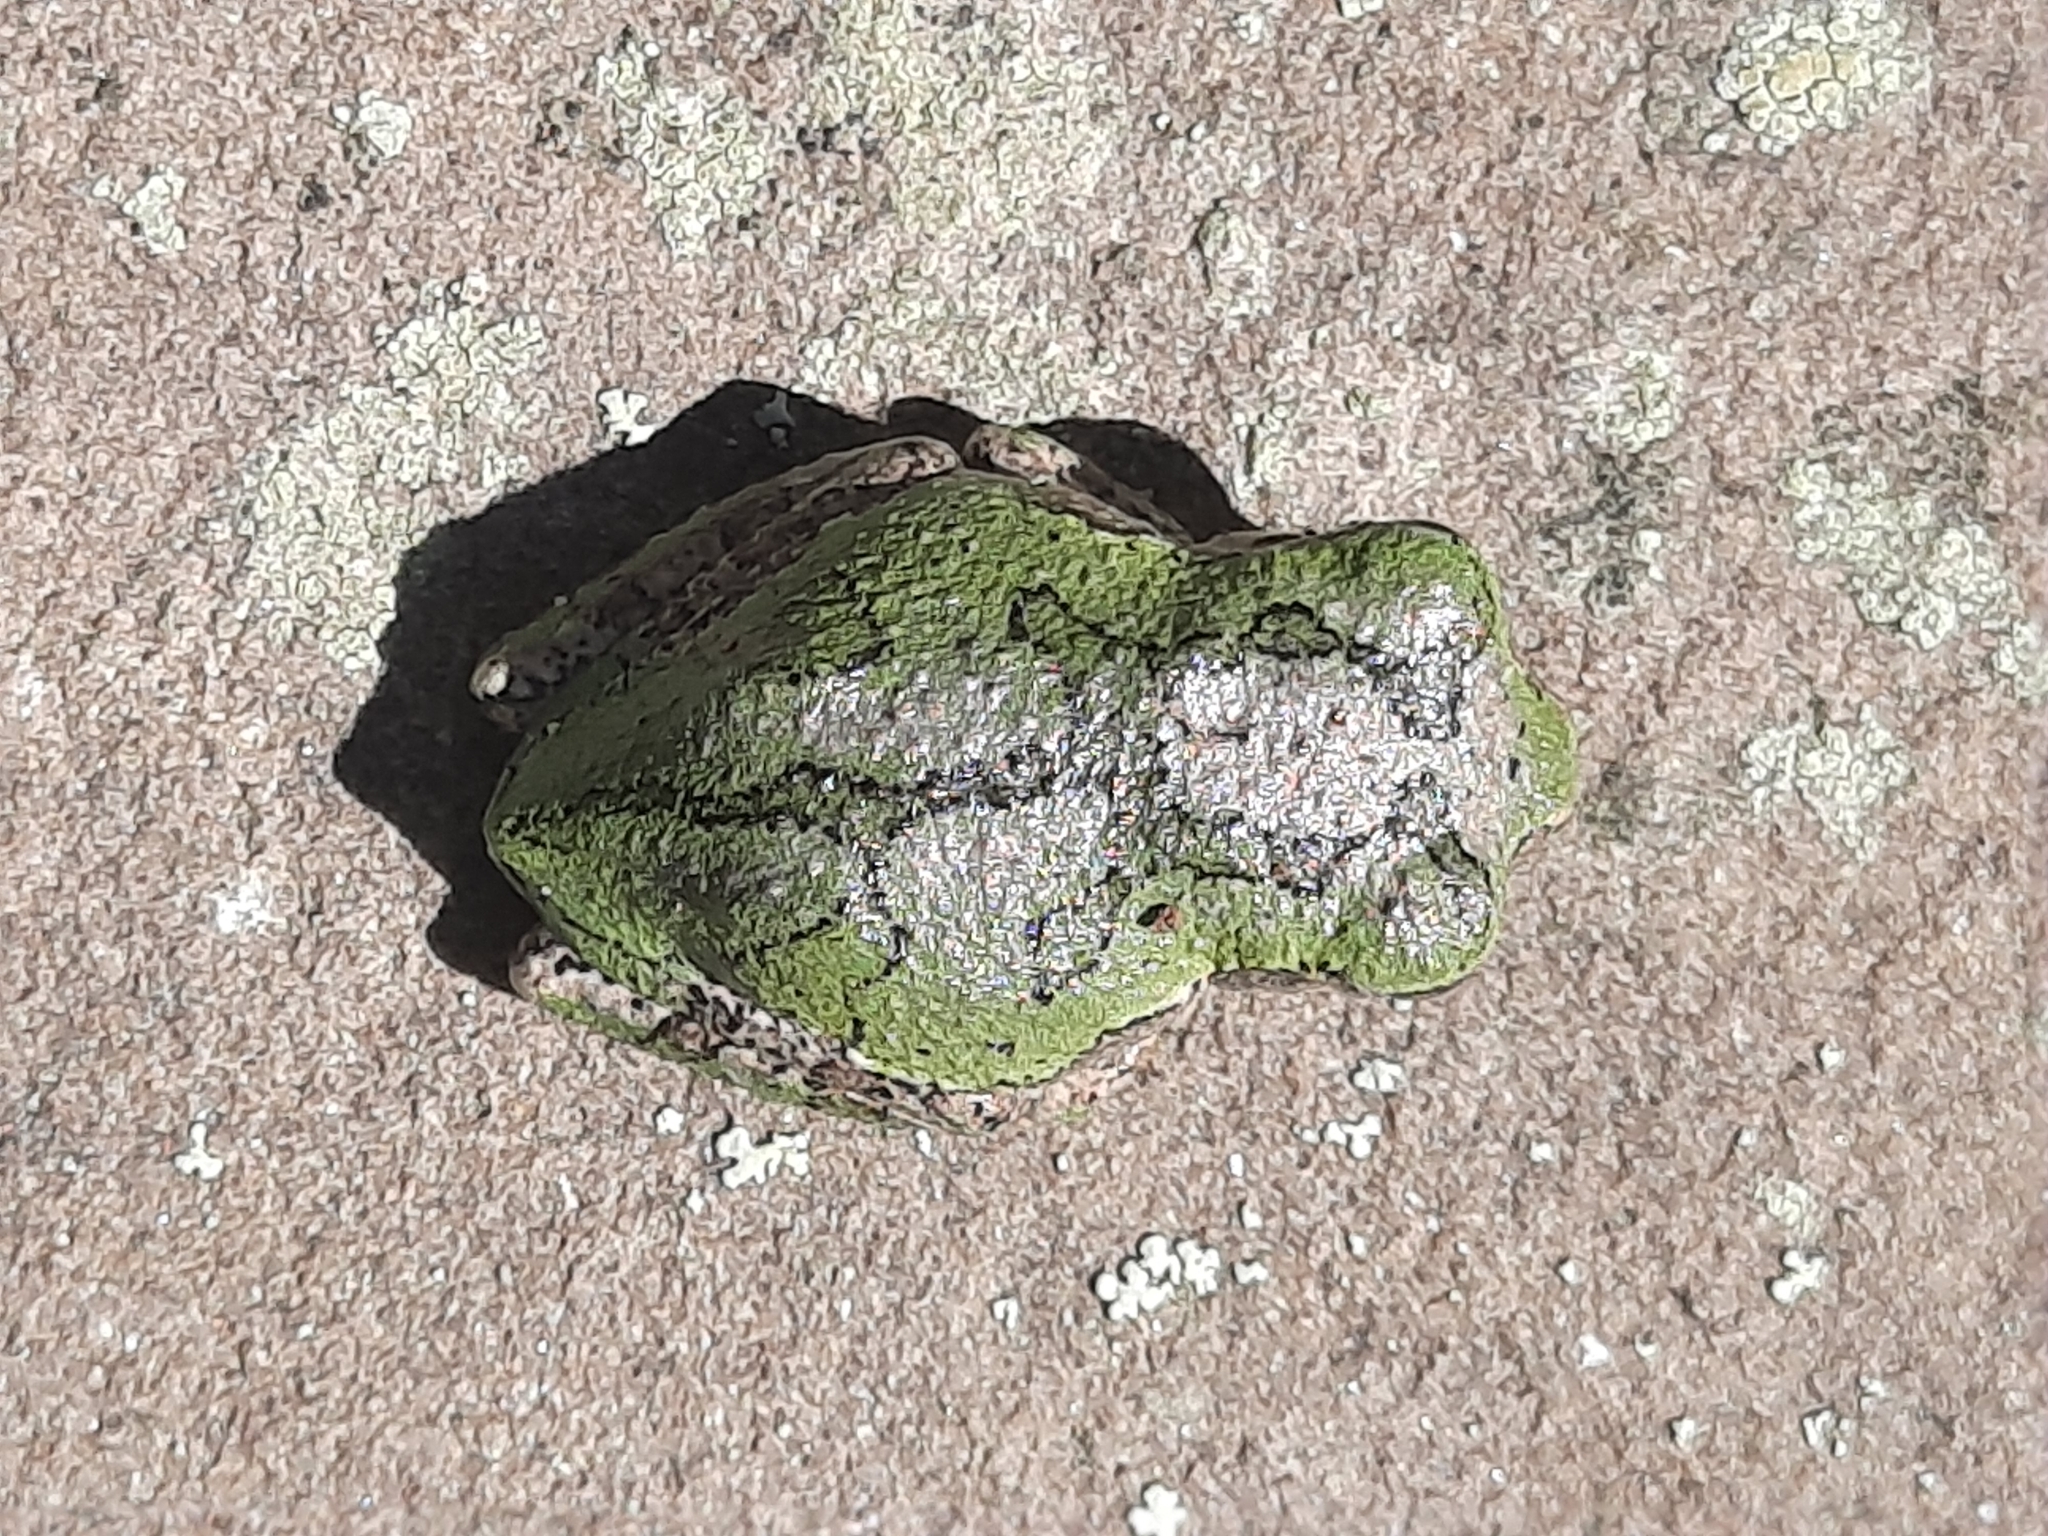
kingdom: Animalia
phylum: Chordata
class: Amphibia
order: Anura
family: Hylidae
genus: Dryophytes
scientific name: Dryophytes versicolor
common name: Gray treefrog
